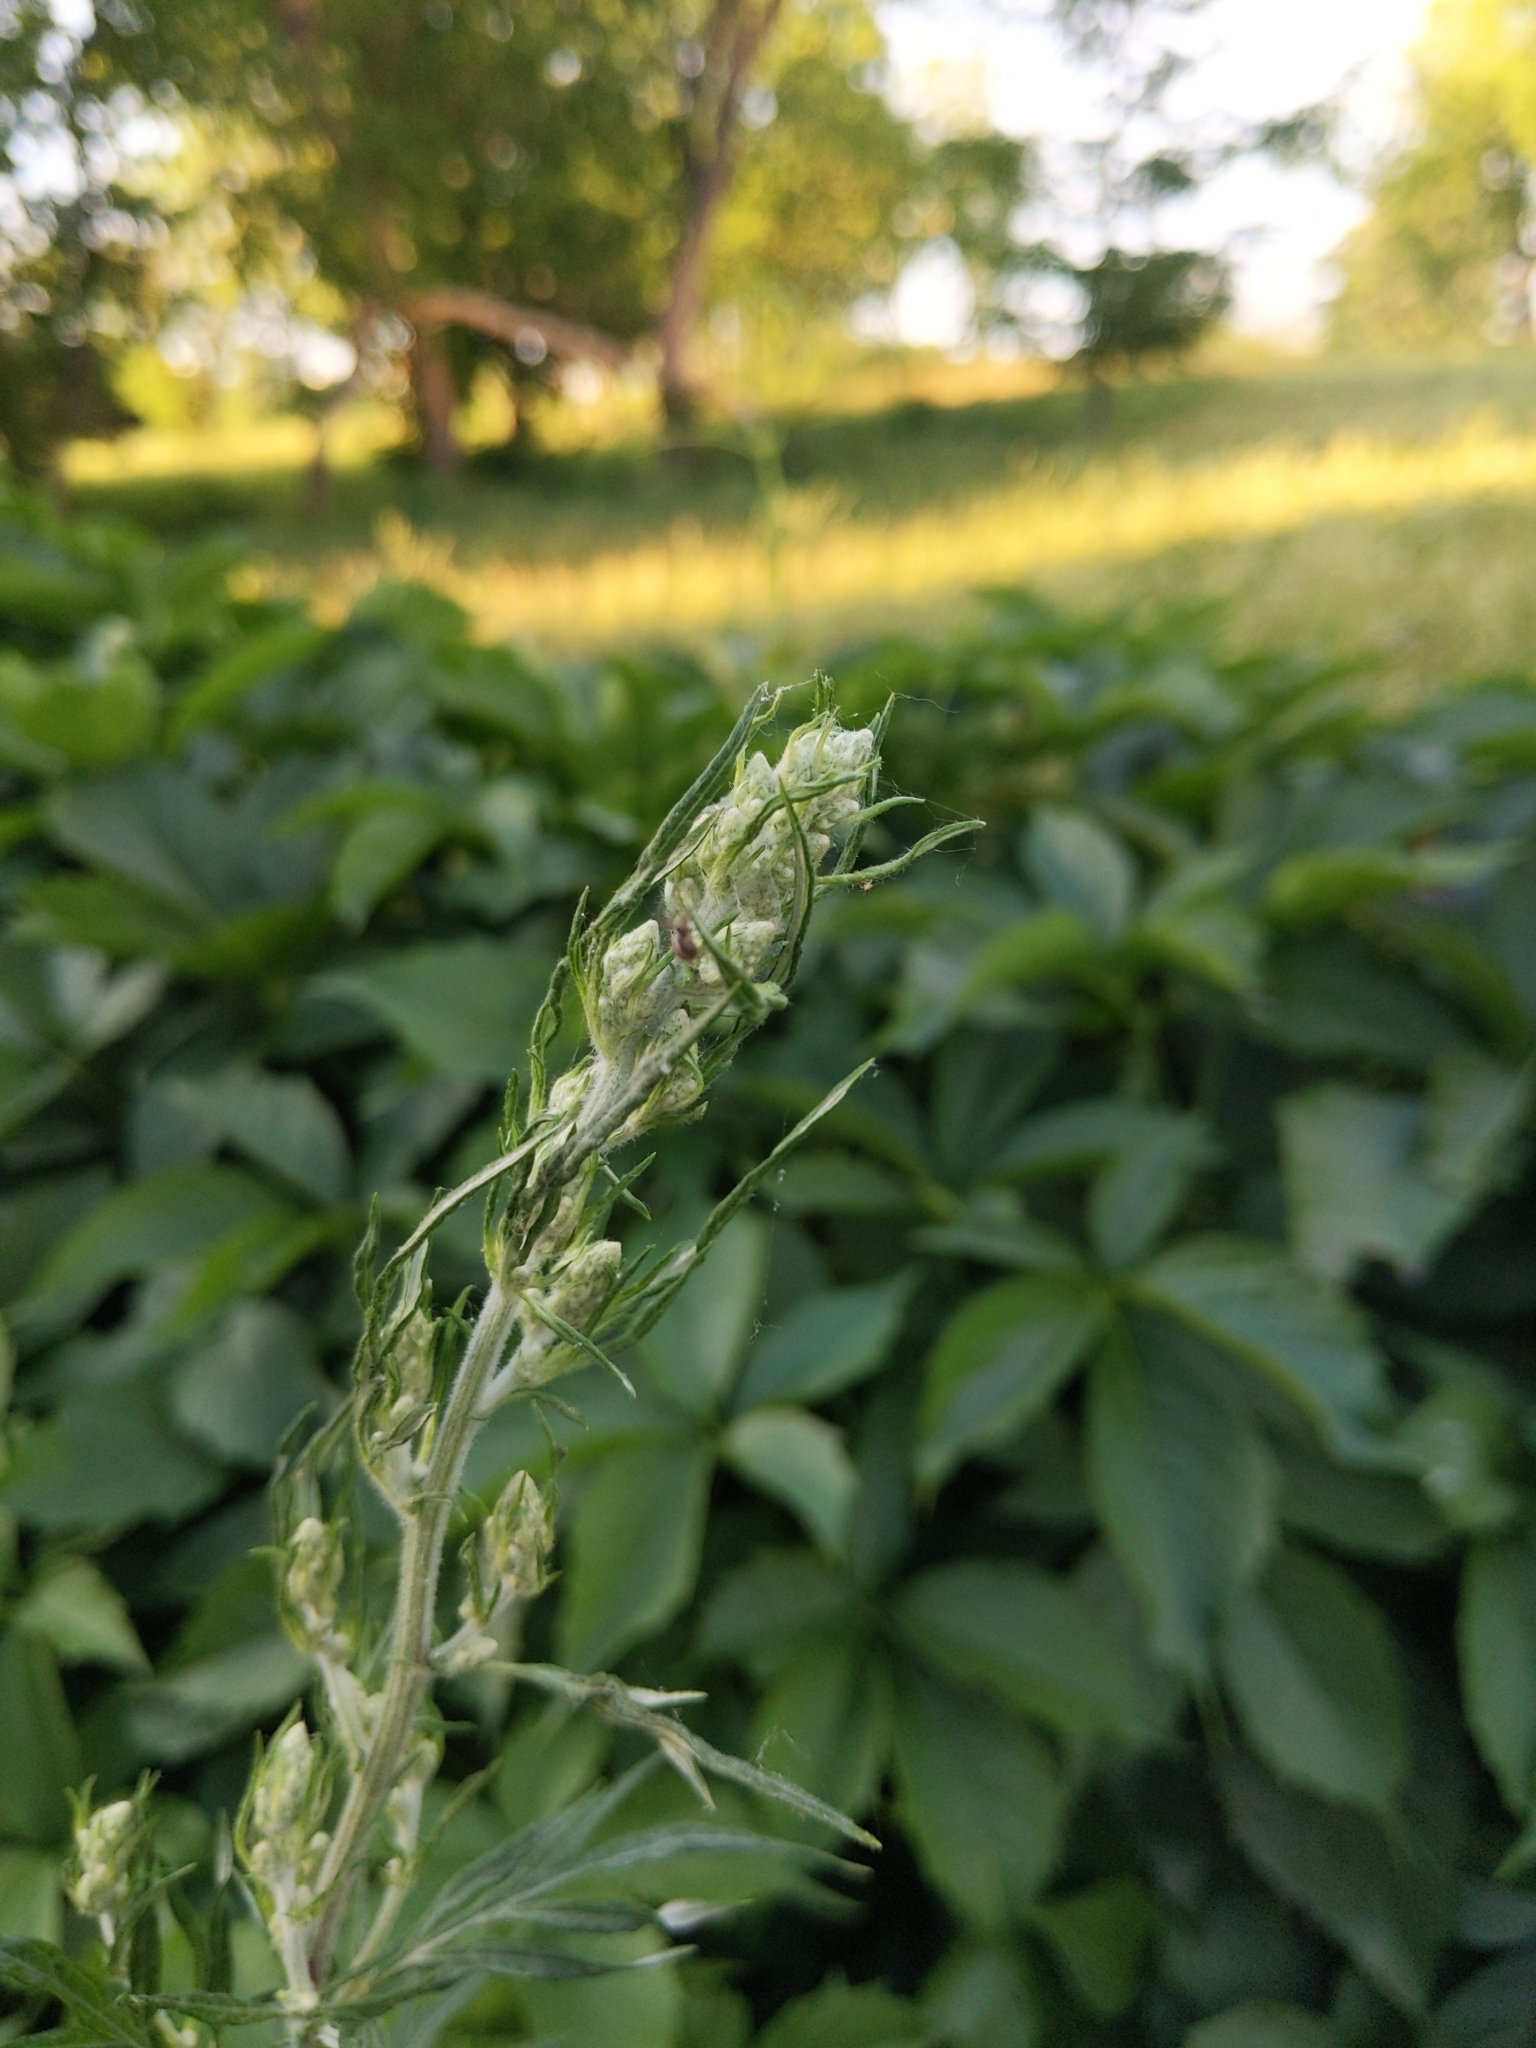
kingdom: Plantae
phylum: Tracheophyta
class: Magnoliopsida
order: Asterales
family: Asteraceae
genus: Artemisia
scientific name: Artemisia vulgaris
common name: Mugwort
